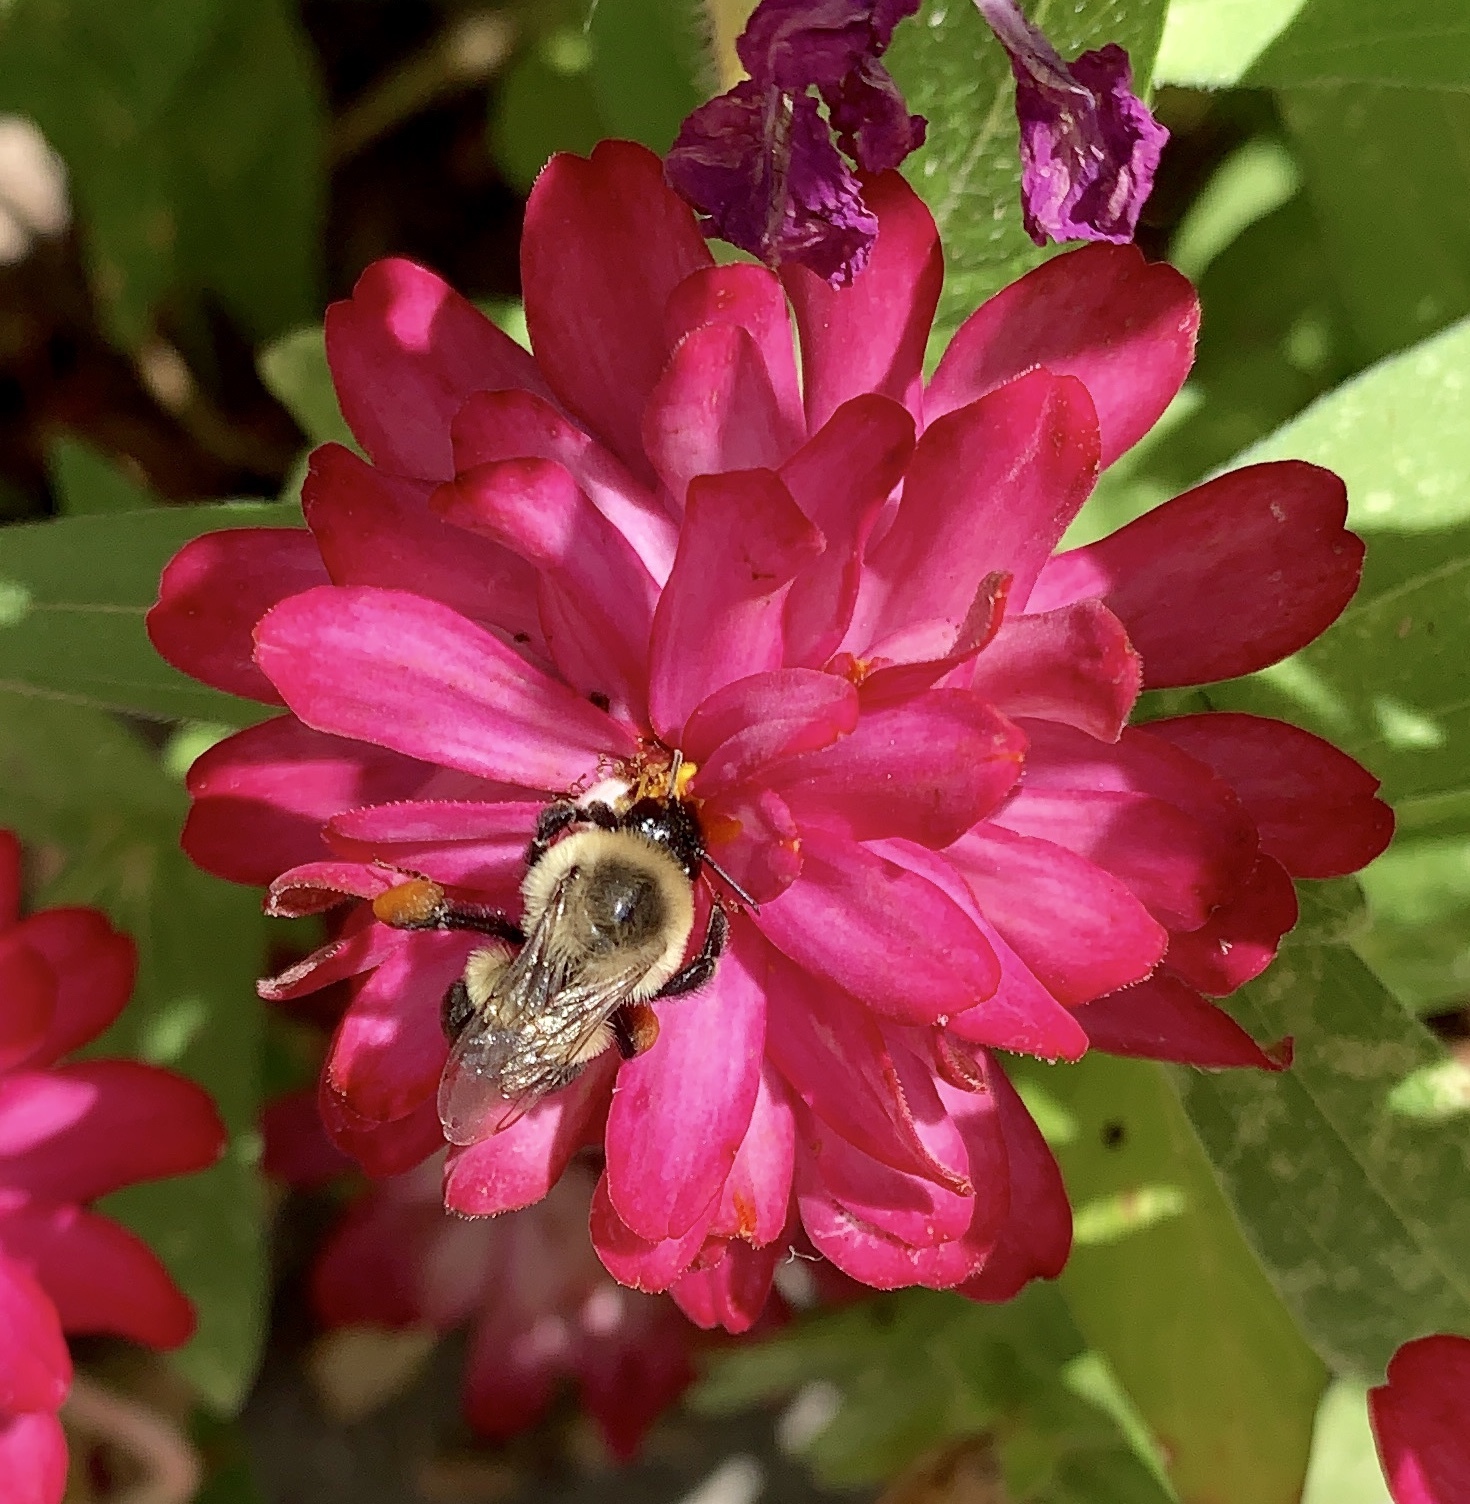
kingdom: Animalia
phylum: Arthropoda
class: Insecta
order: Hymenoptera
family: Apidae
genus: Bombus
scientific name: Bombus impatiens
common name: Common eastern bumble bee
